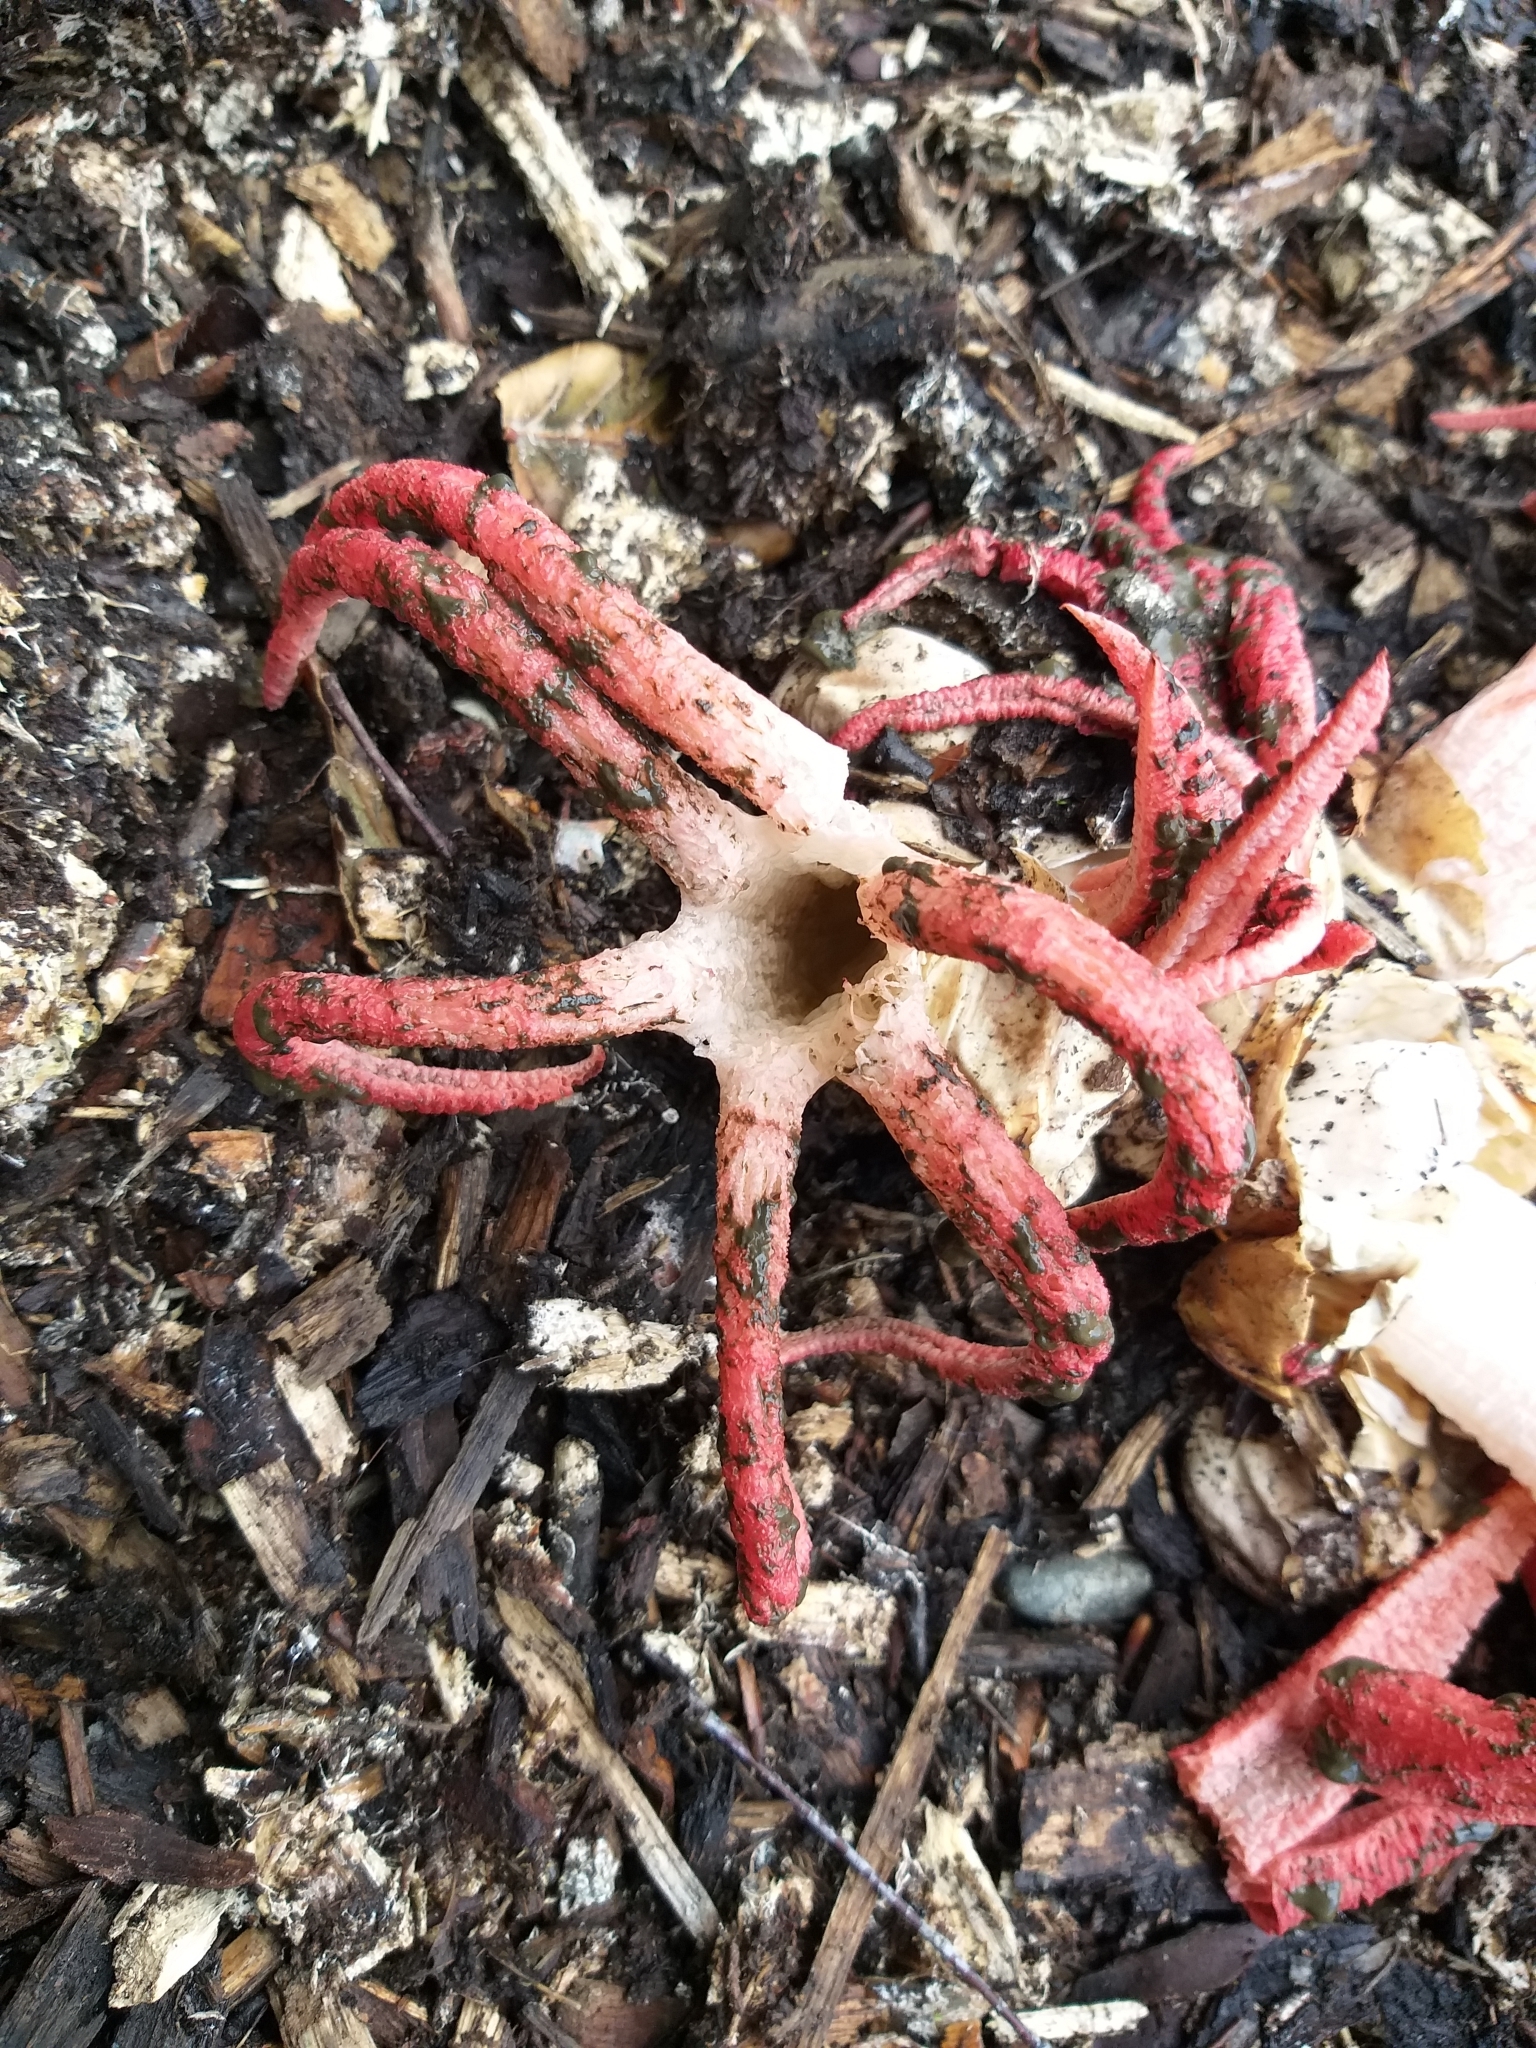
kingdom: Fungi
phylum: Basidiomycota
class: Agaricomycetes
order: Phallales
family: Phallaceae
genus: Clathrus
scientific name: Clathrus archeri
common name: Devil's fingers
